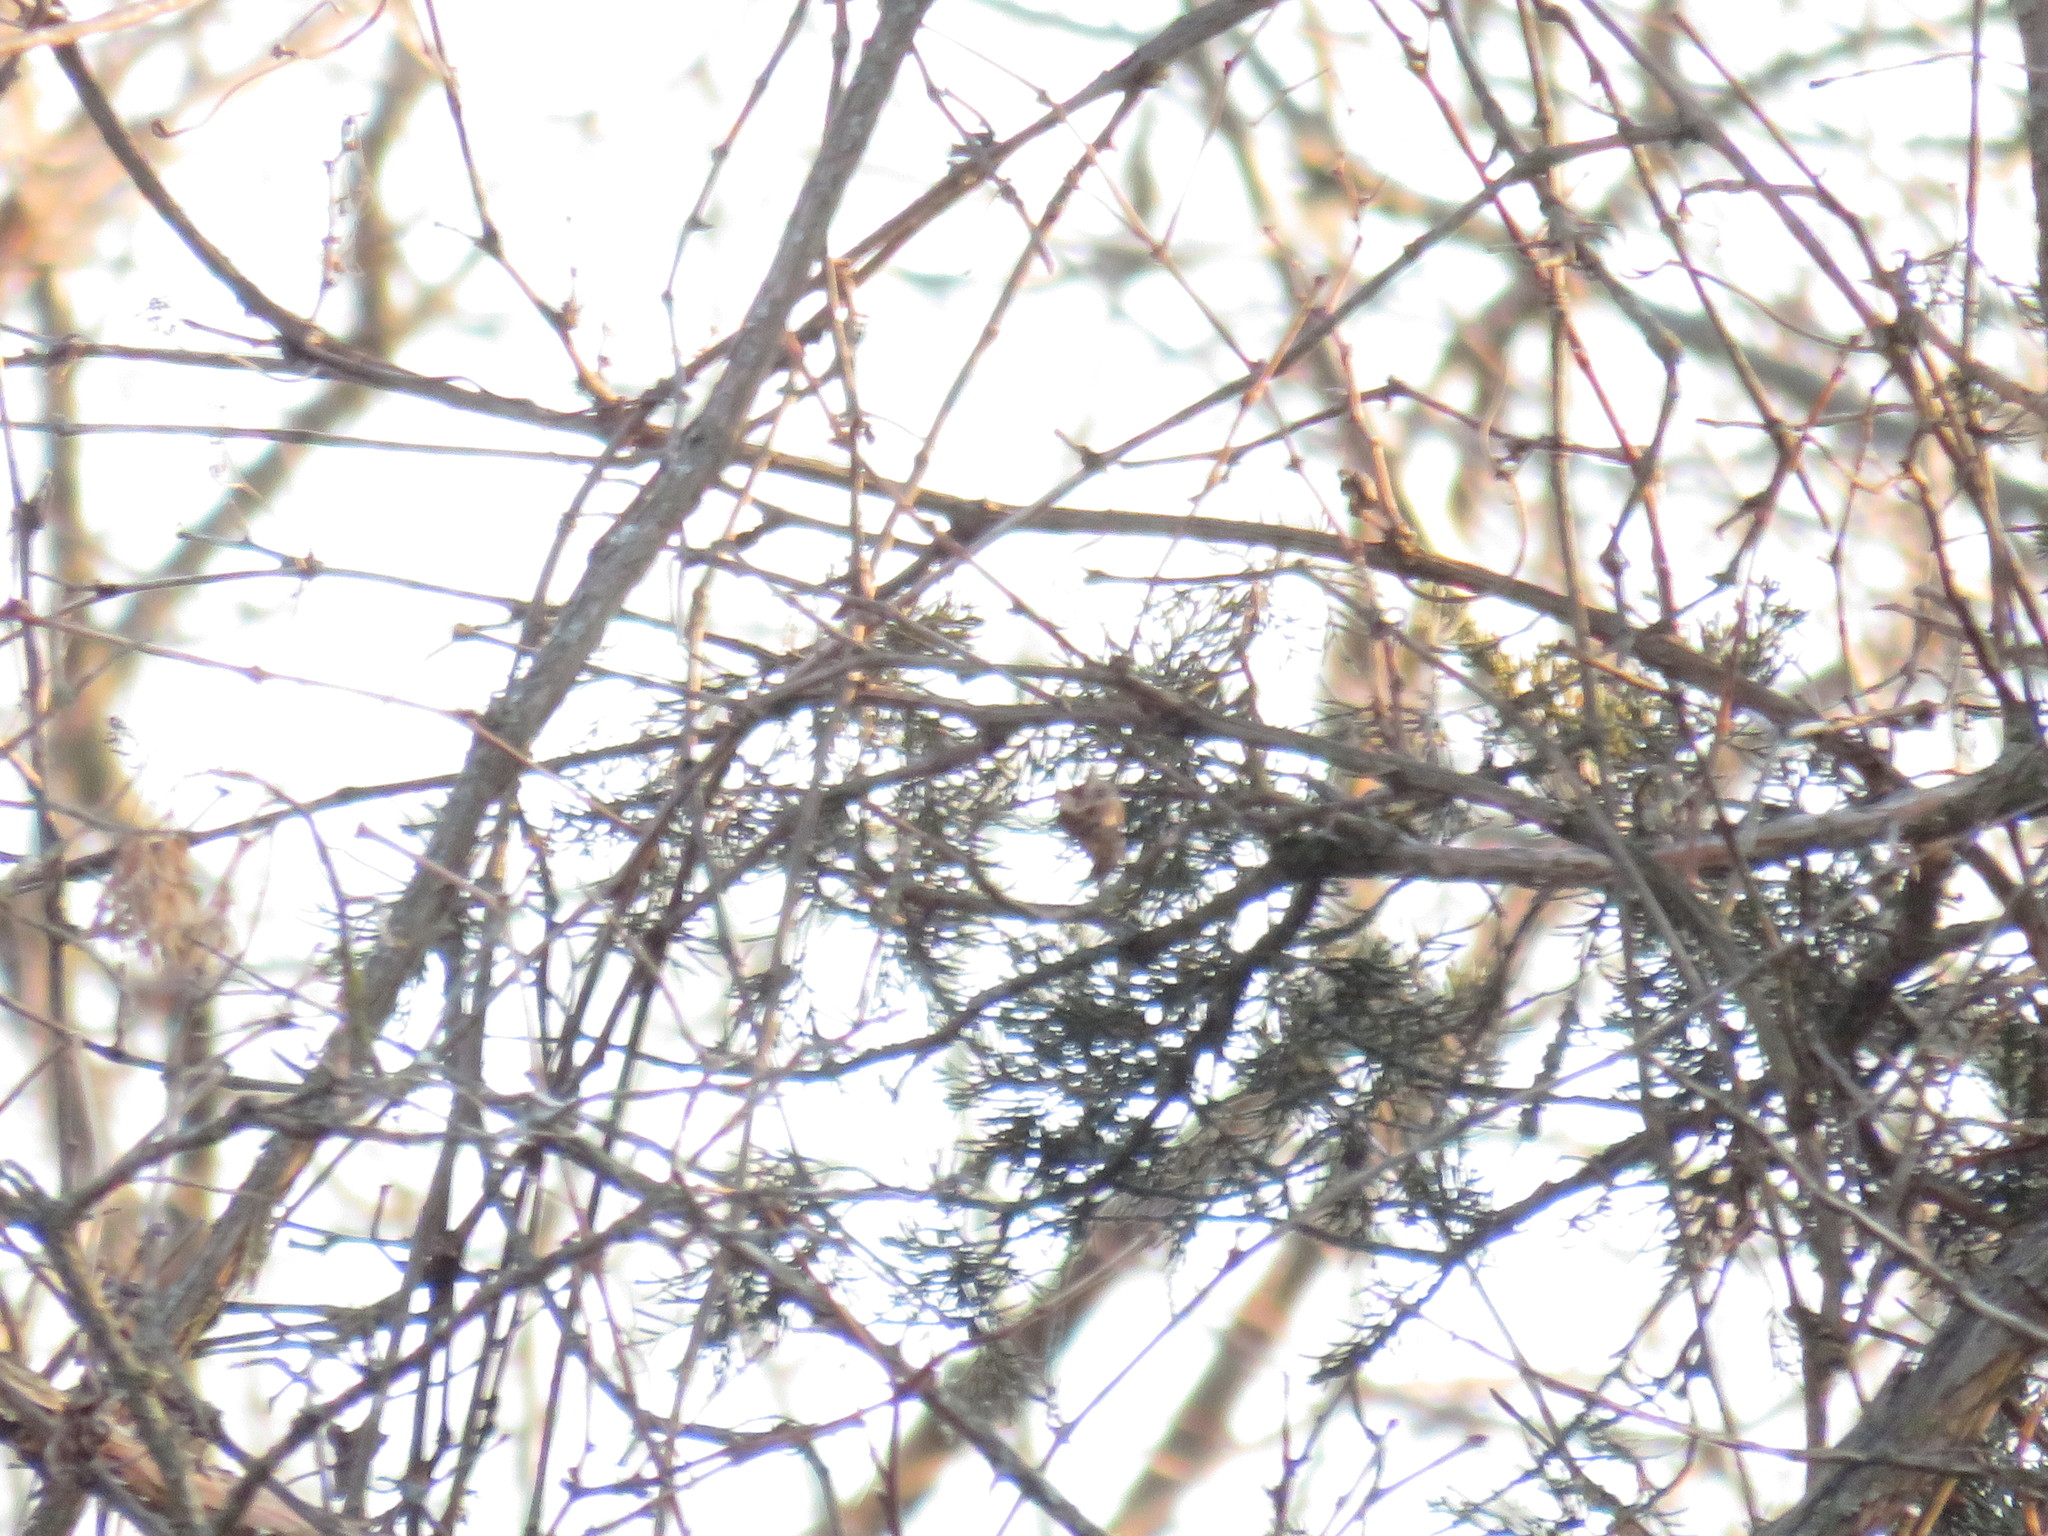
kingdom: Plantae
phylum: Tracheophyta
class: Pinopsida
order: Pinales
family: Cupressaceae
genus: Juniperus
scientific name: Juniperus virginiana
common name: Red juniper
